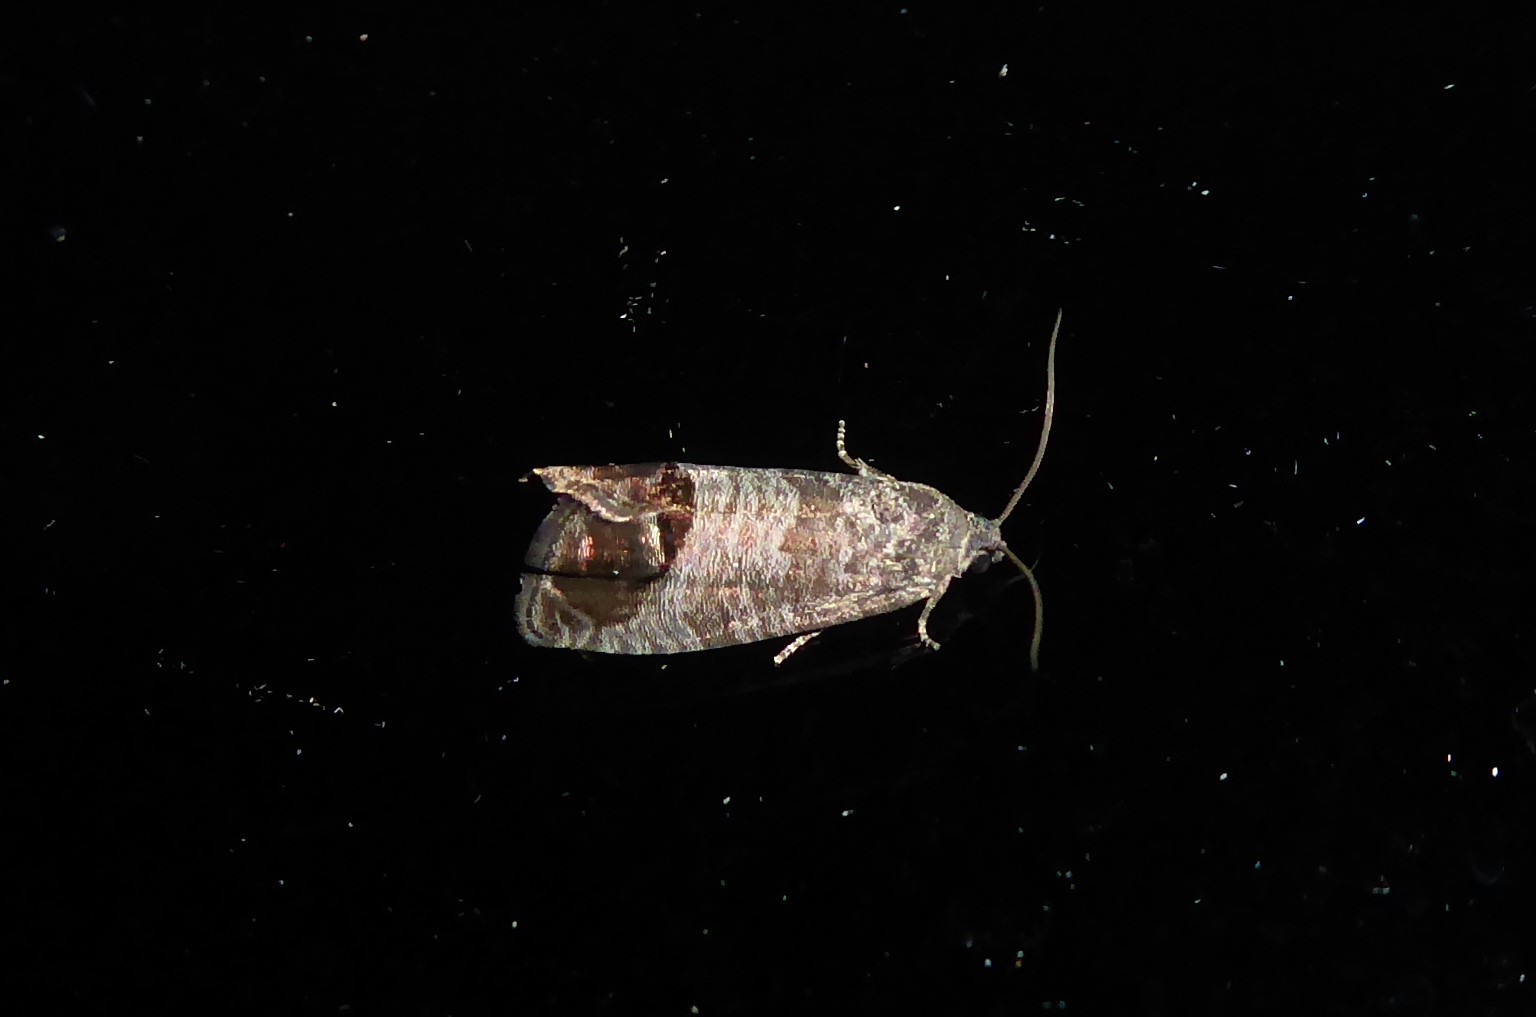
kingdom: Animalia
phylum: Arthropoda
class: Insecta
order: Lepidoptera
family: Tortricidae
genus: Cydia
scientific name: Cydia pomonella
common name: Codling moth
